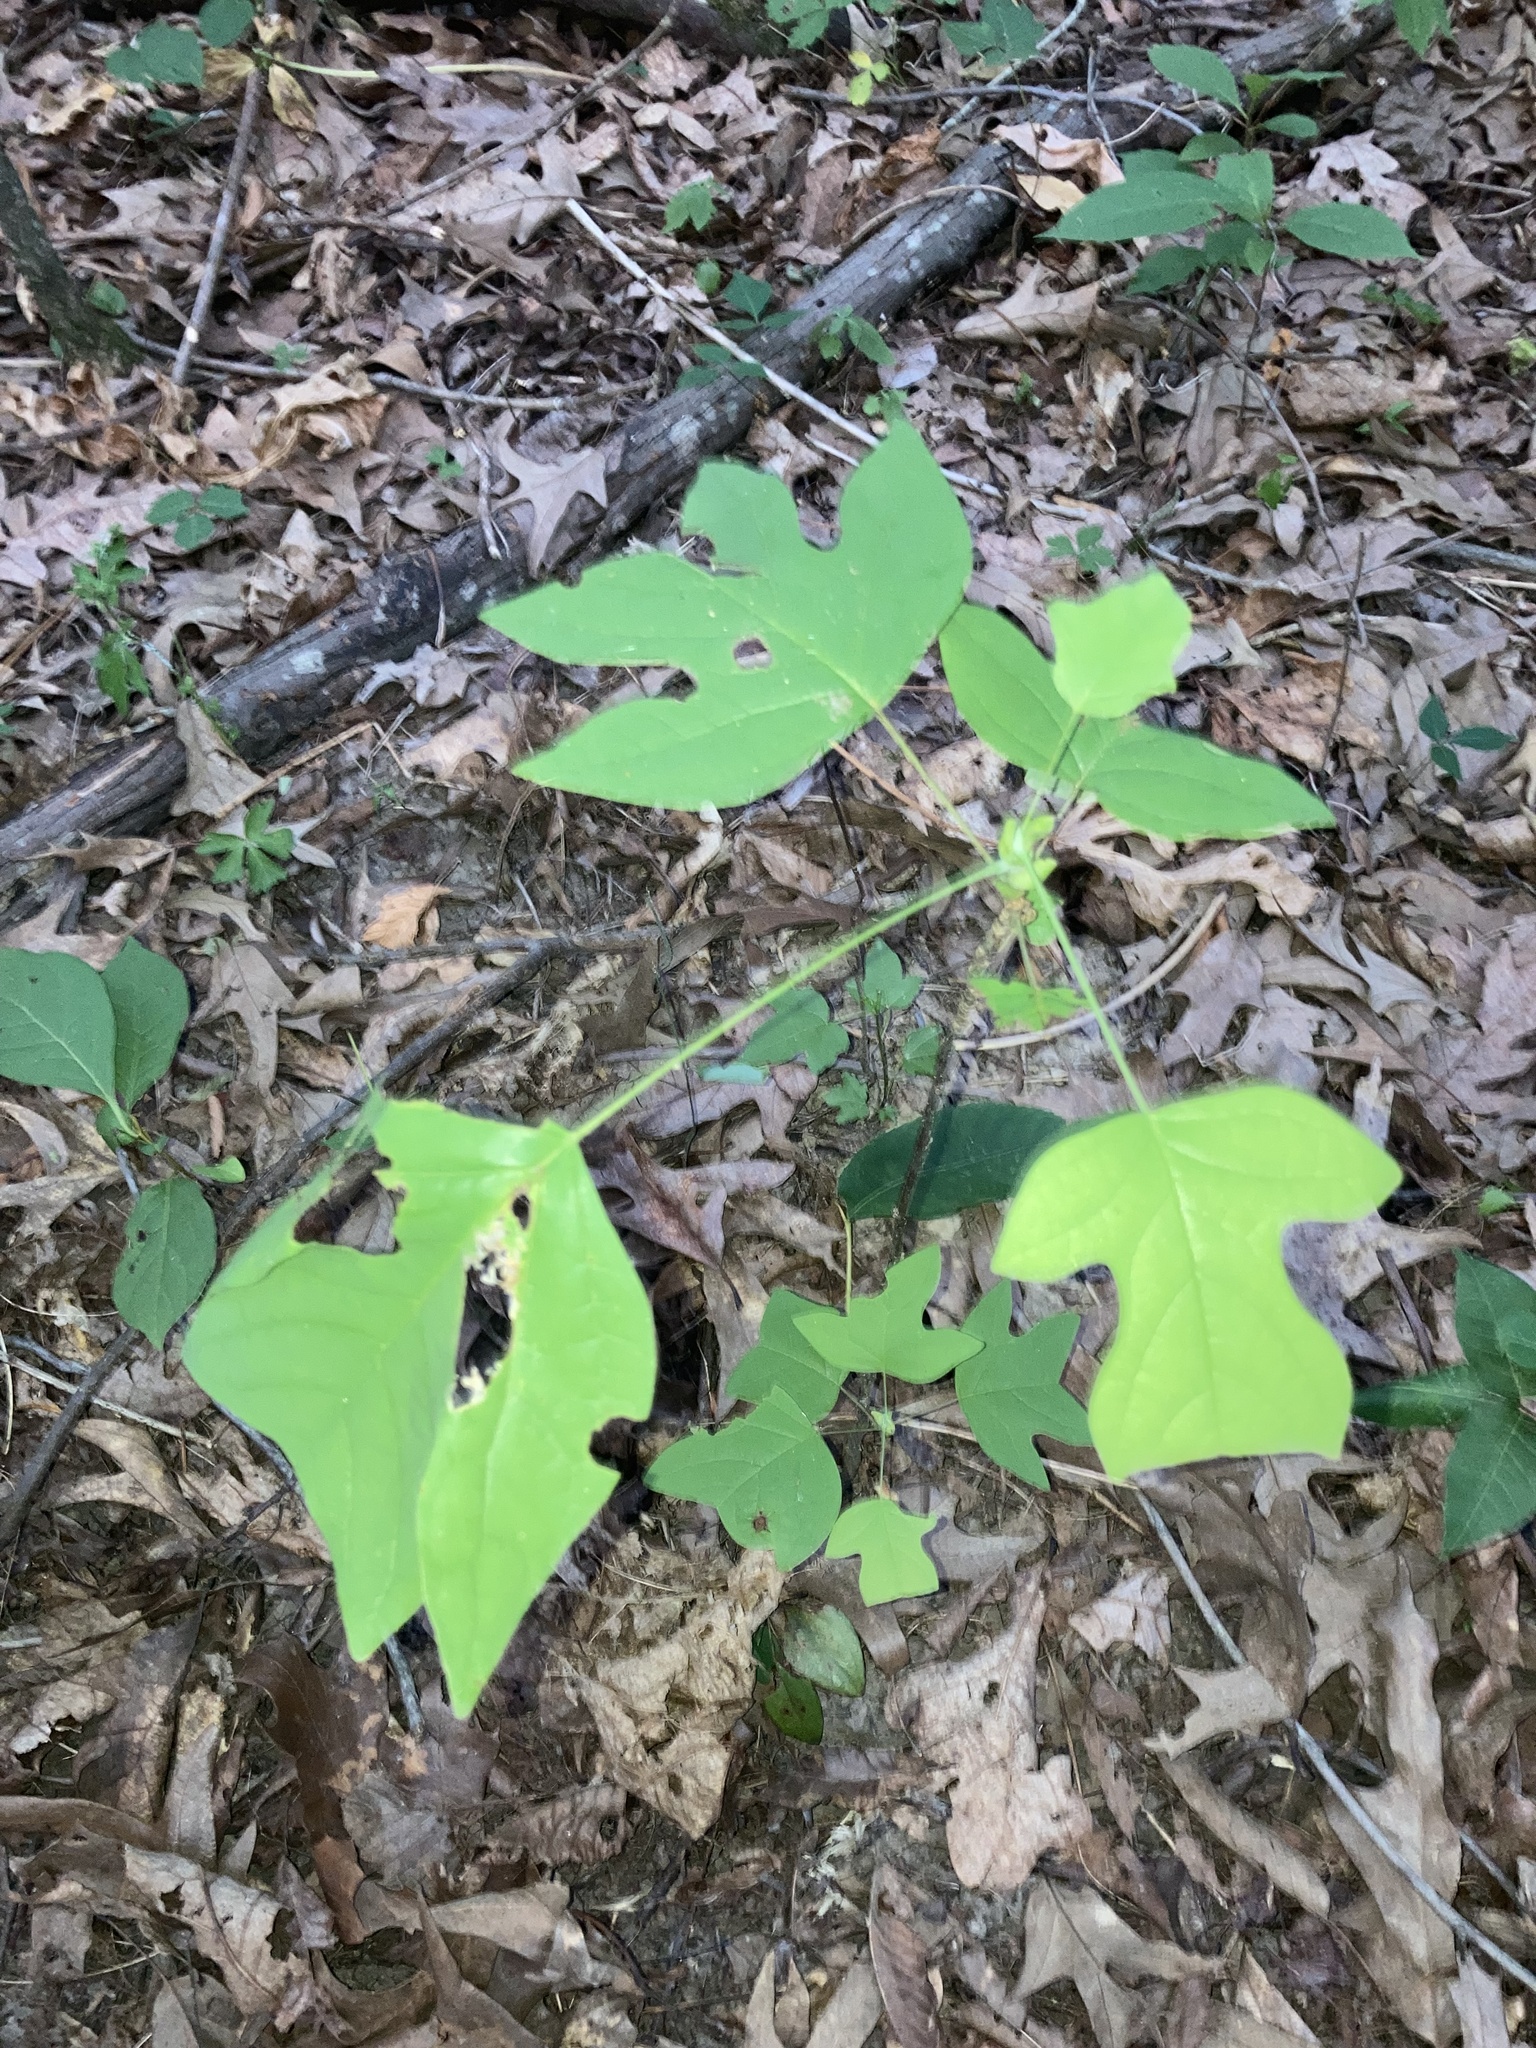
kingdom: Plantae
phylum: Tracheophyta
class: Magnoliopsida
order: Magnoliales
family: Magnoliaceae
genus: Liriodendron
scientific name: Liriodendron tulipifera
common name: Tulip tree
